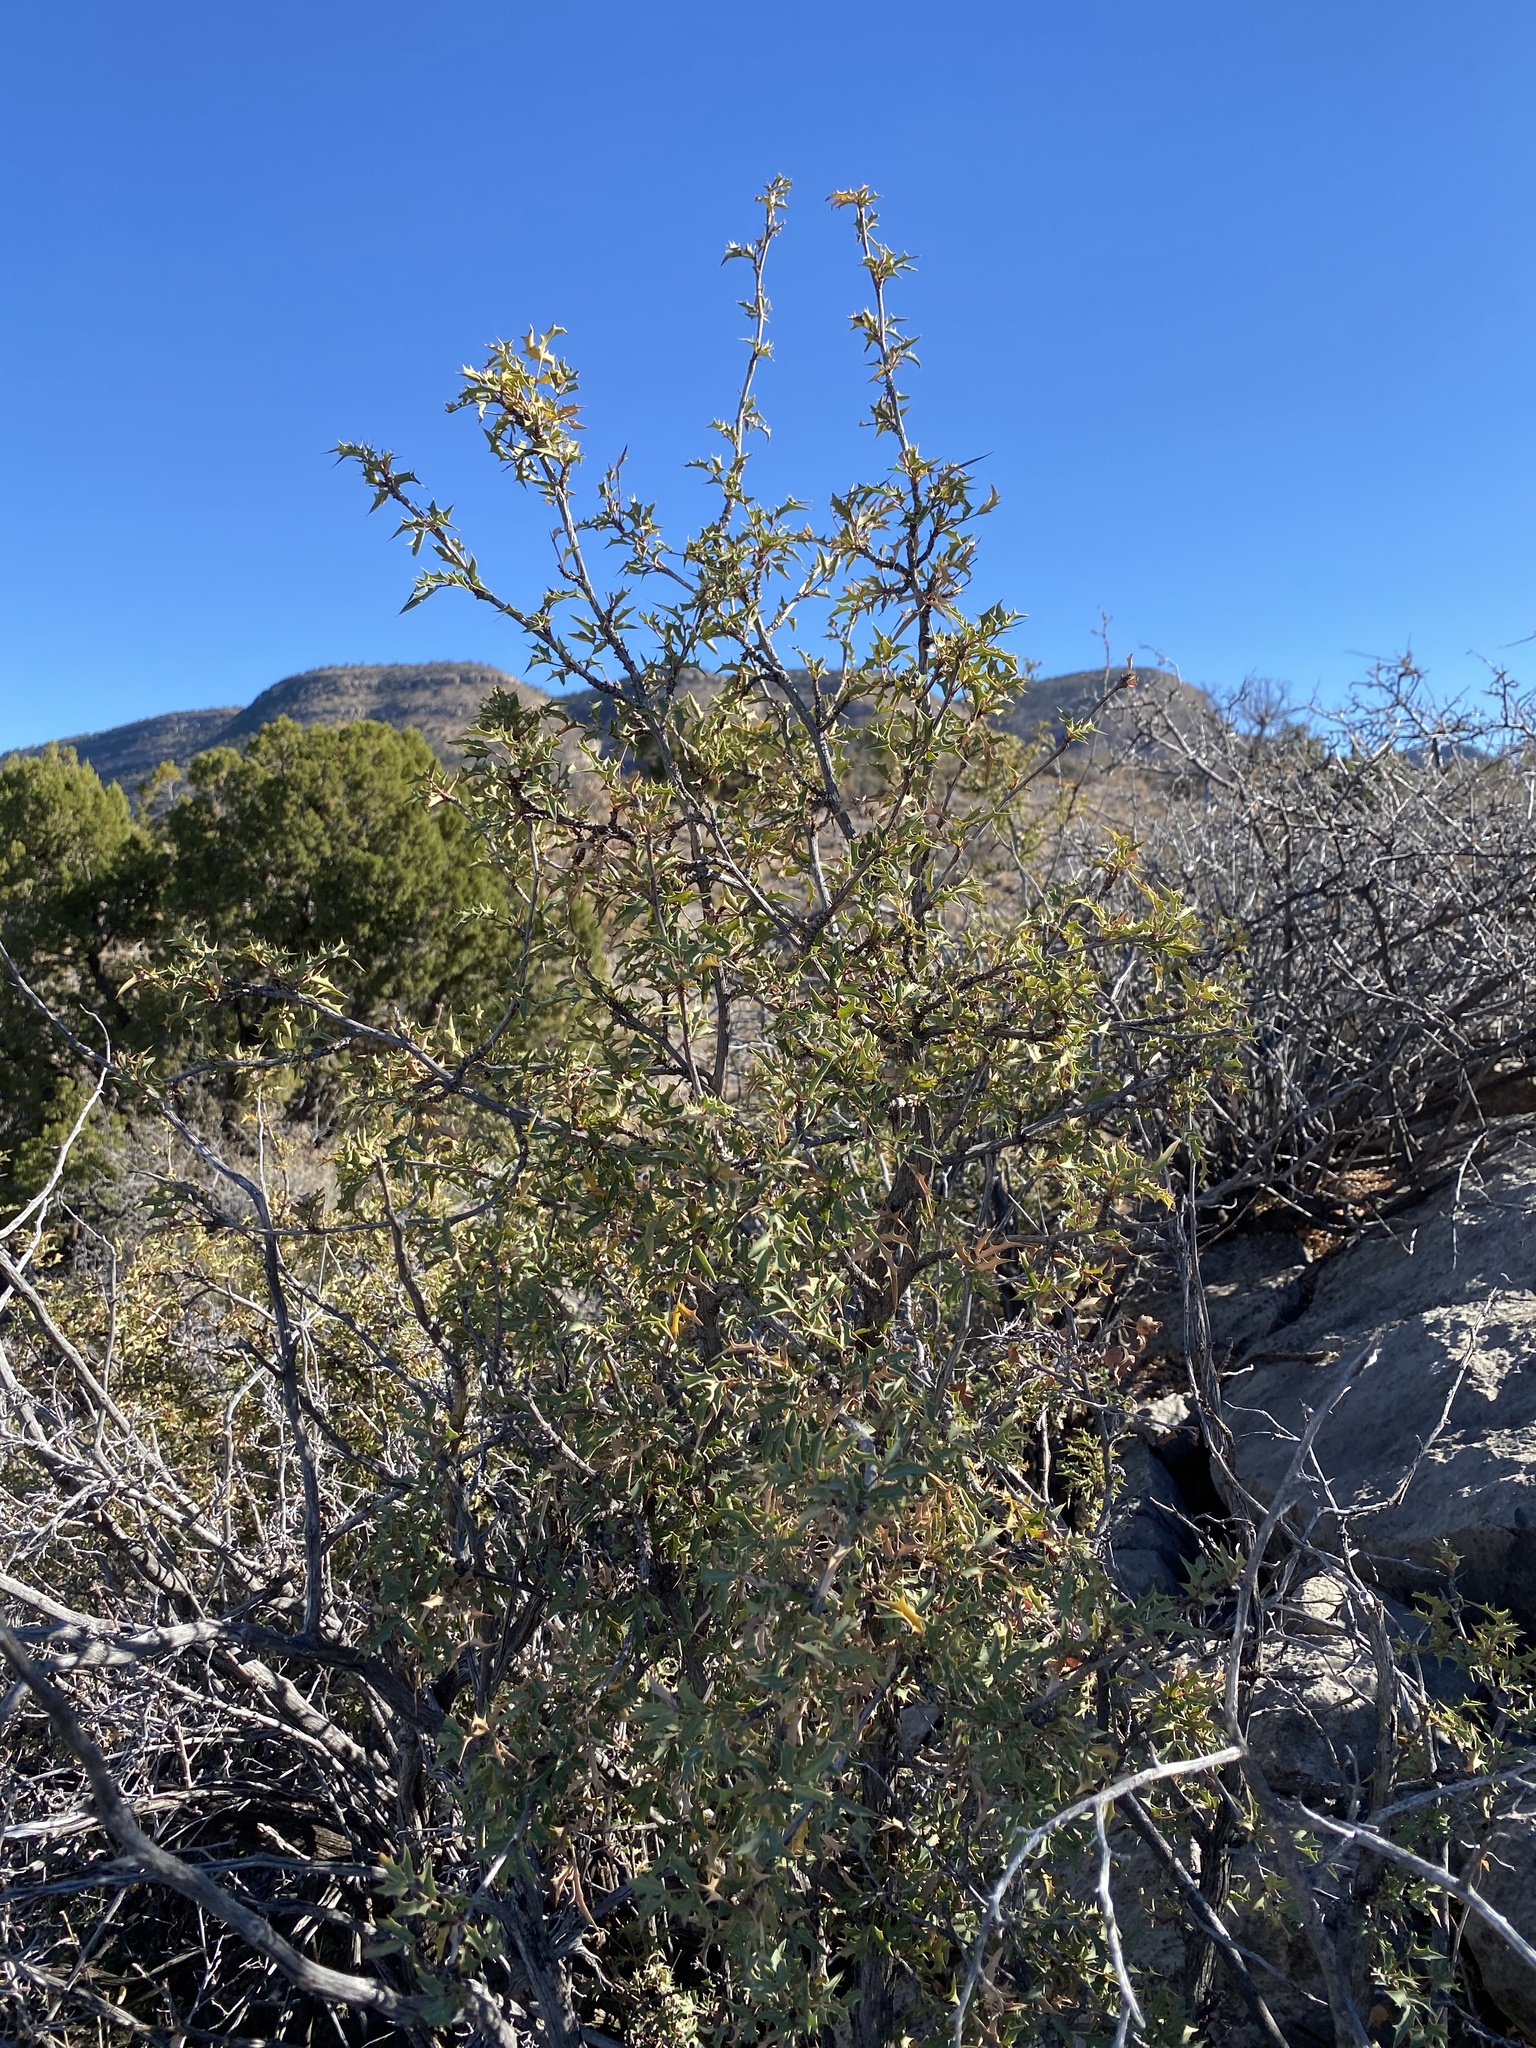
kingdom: Plantae
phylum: Tracheophyta
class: Magnoliopsida
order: Ranunculales
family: Berberidaceae
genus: Alloberberis
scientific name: Alloberberis haematocarpa
